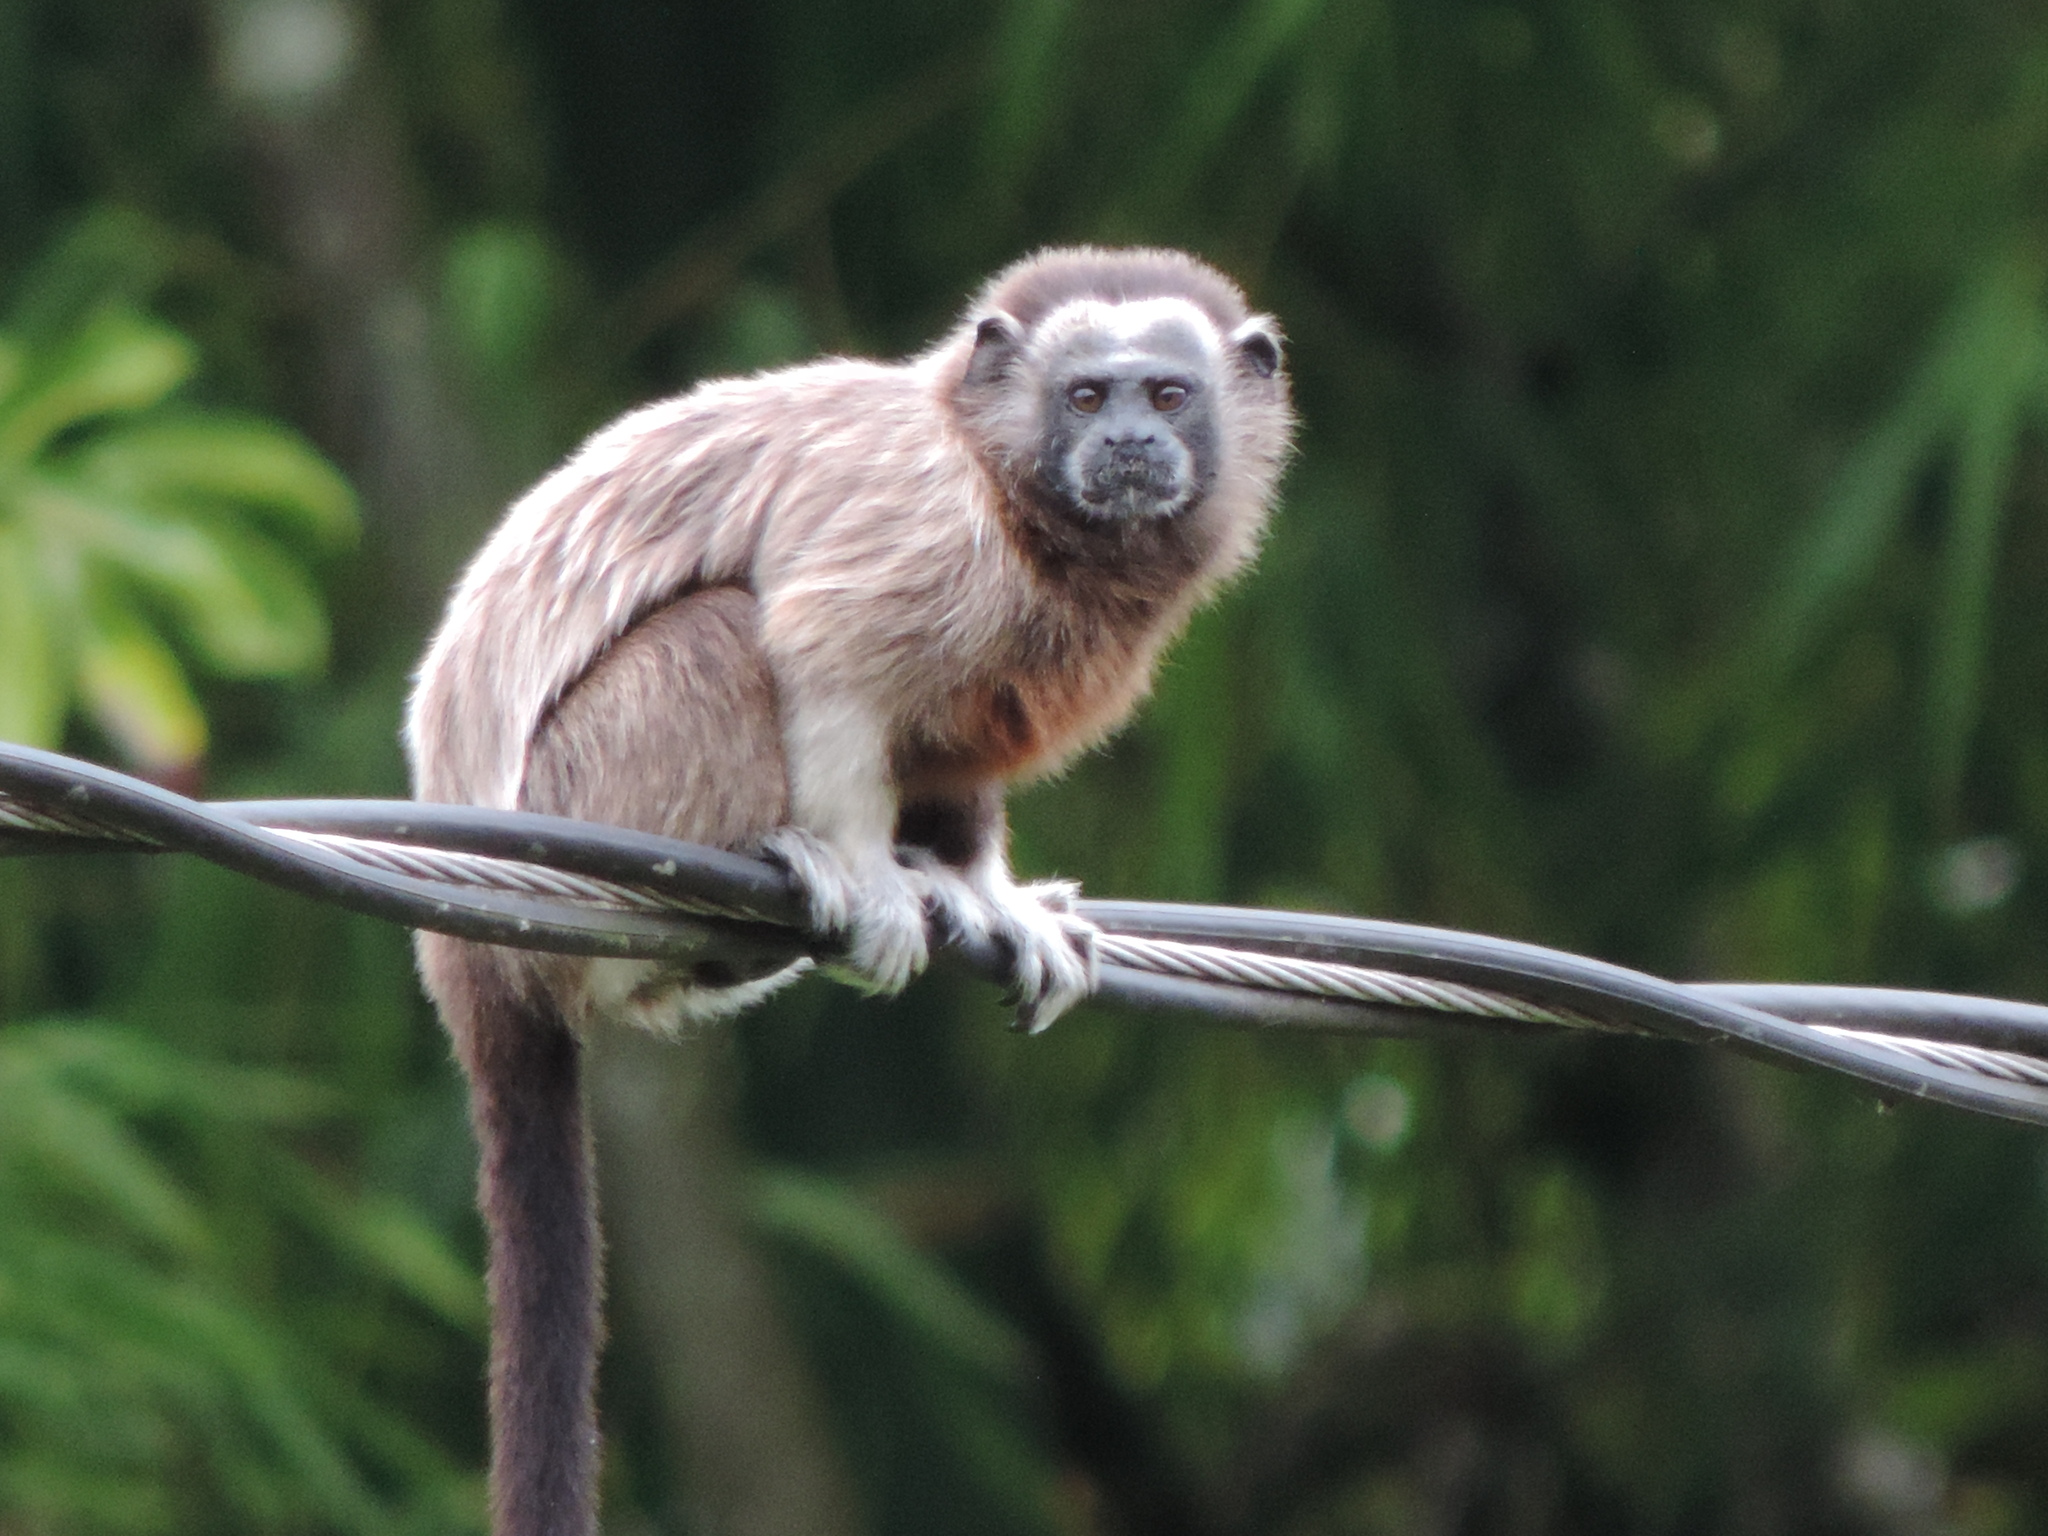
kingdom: Animalia
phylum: Chordata
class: Mammalia
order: Primates
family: Callitrichidae
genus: Saguinus
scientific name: Saguinus leucopus
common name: White-footed tamarin
